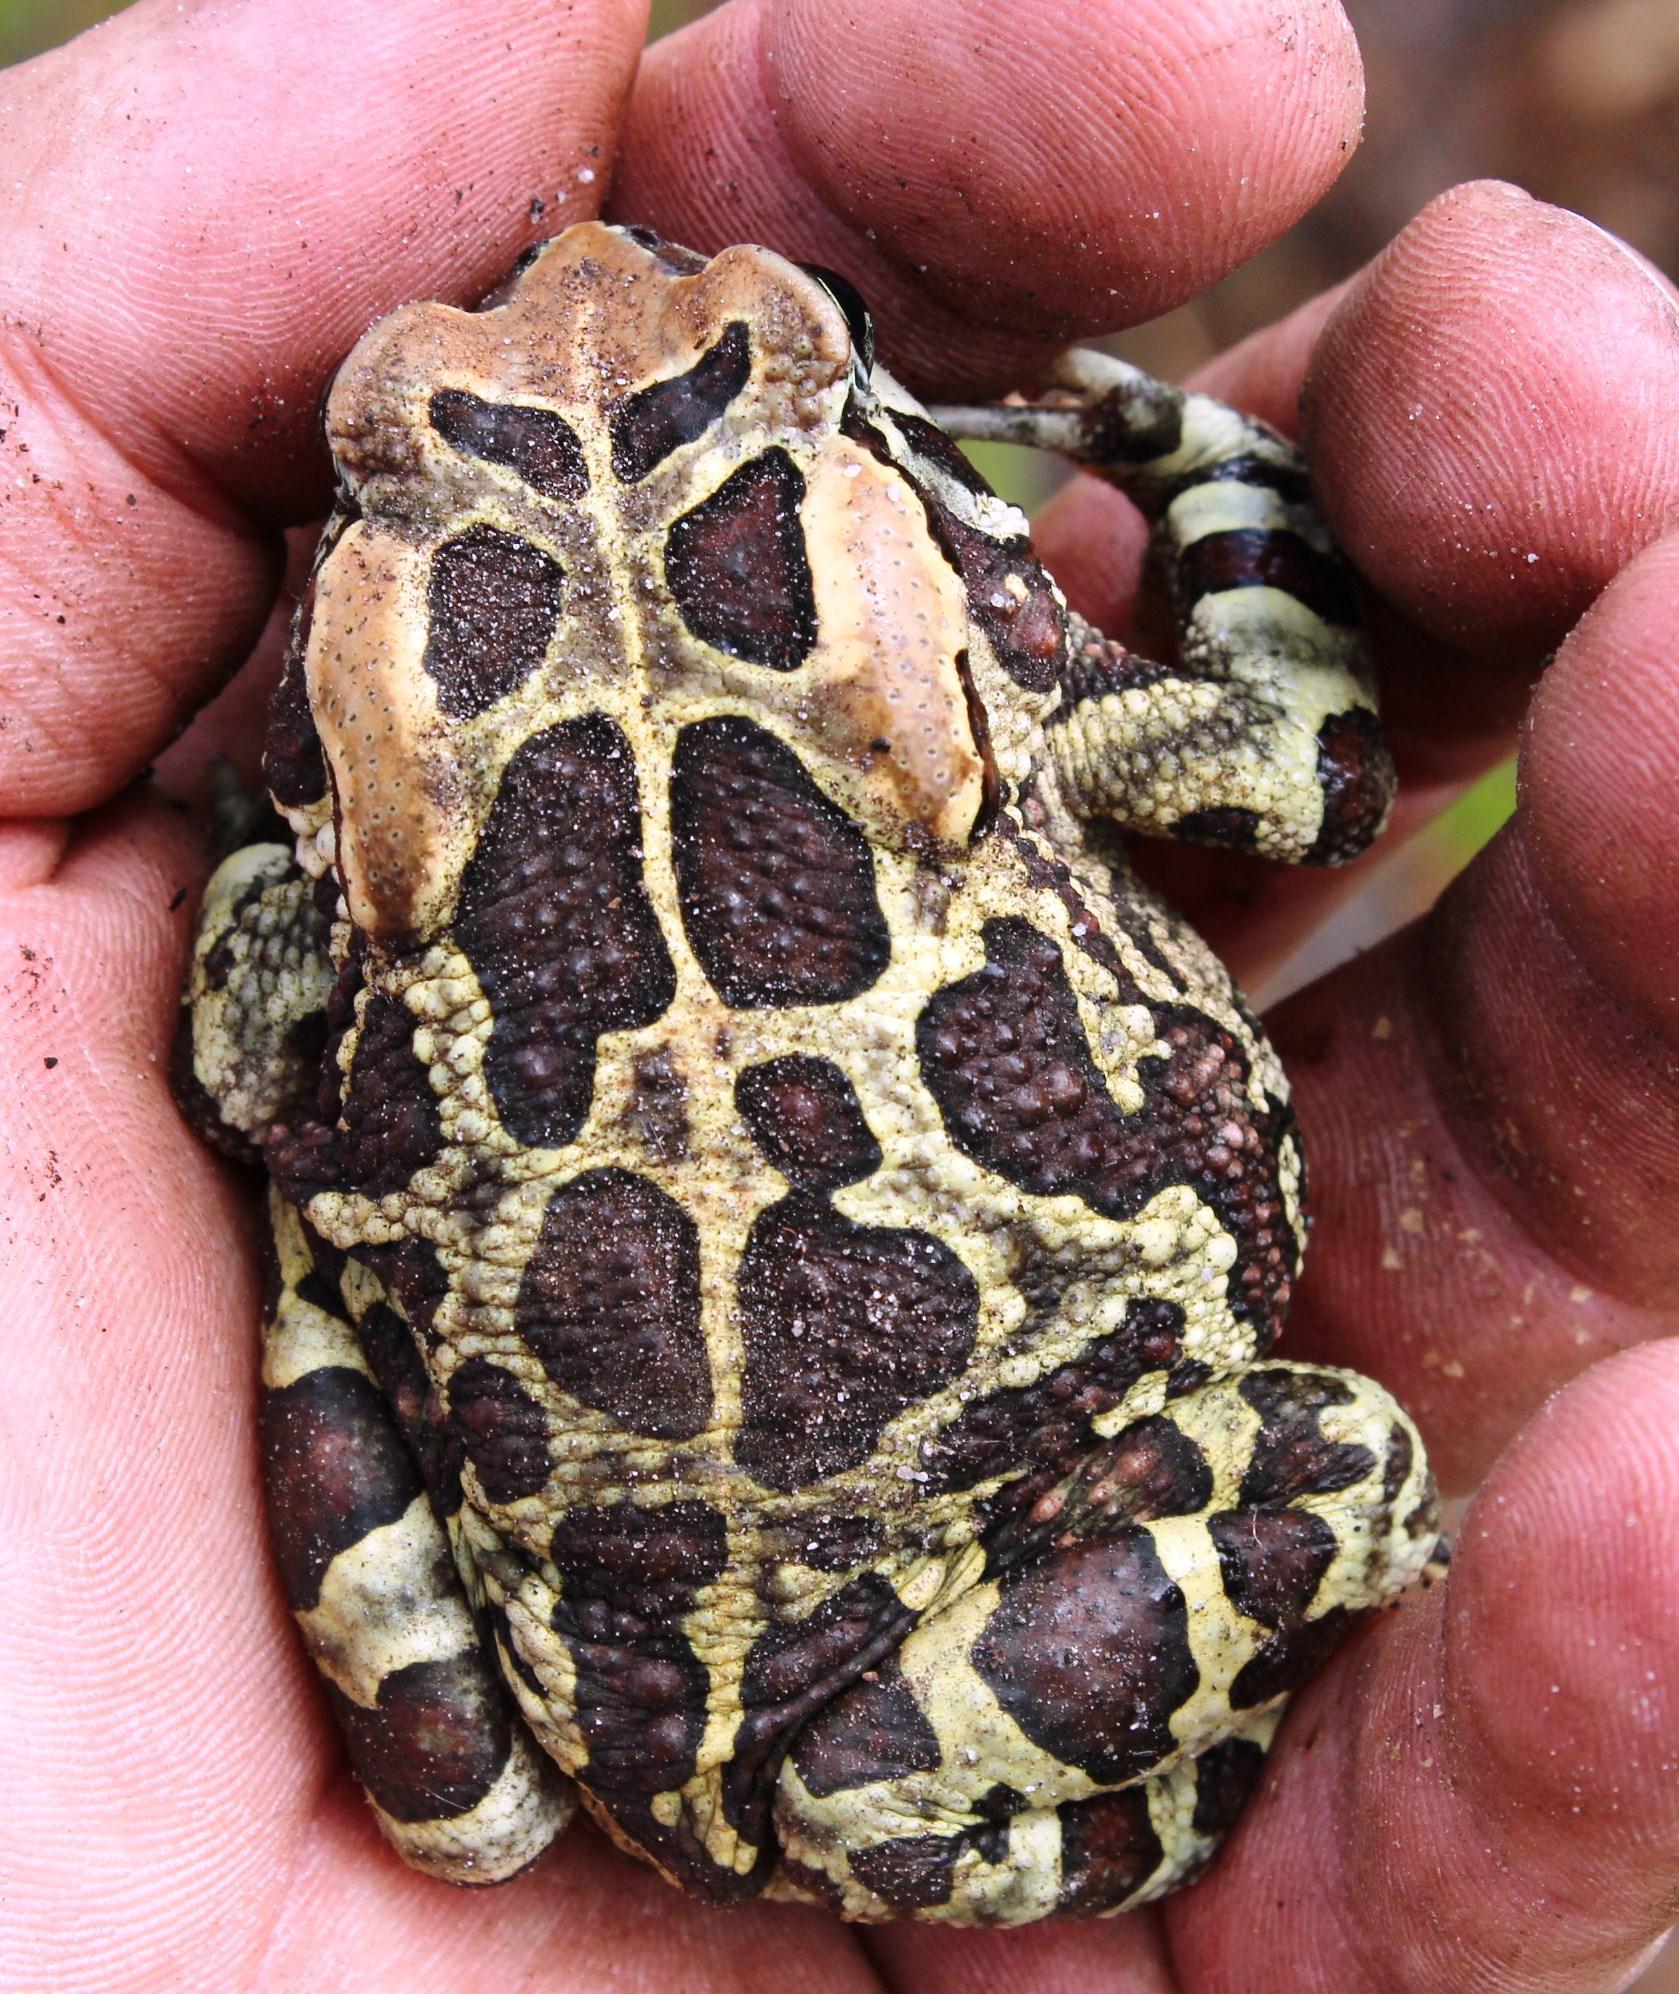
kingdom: Animalia
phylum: Chordata
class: Amphibia
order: Anura
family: Bufonidae
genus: Sclerophrys
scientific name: Sclerophrys pantherina
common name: Panther toad
